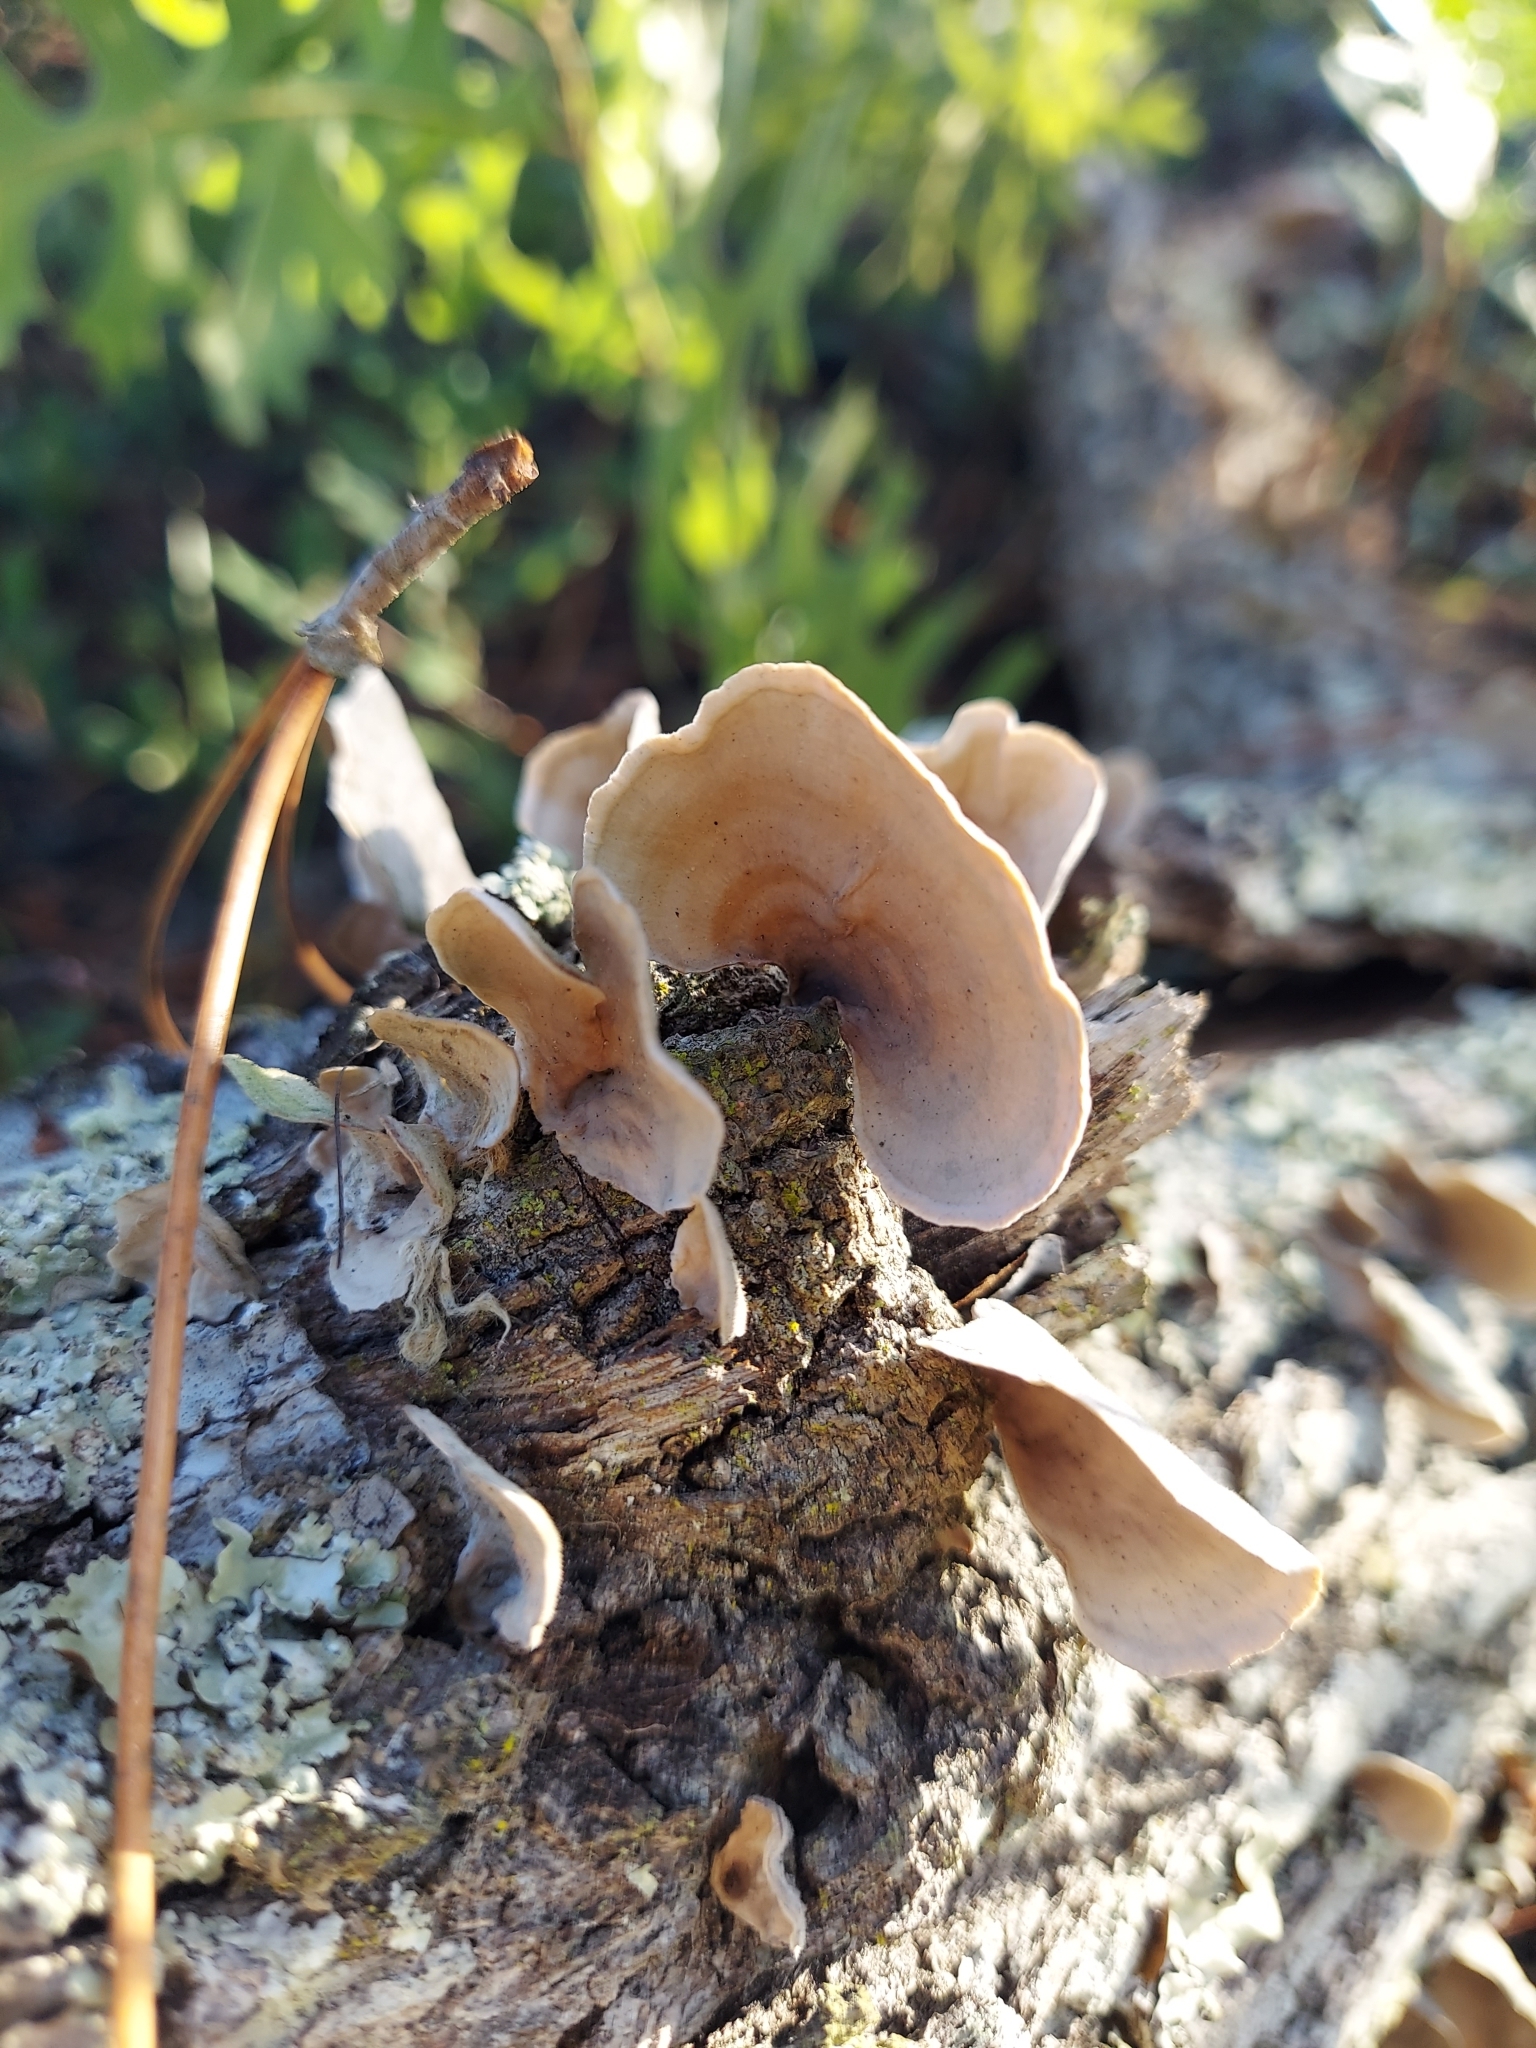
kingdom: Fungi
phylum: Basidiomycota
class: Agaricomycetes
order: Russulales
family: Stereaceae
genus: Stereum
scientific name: Stereum
